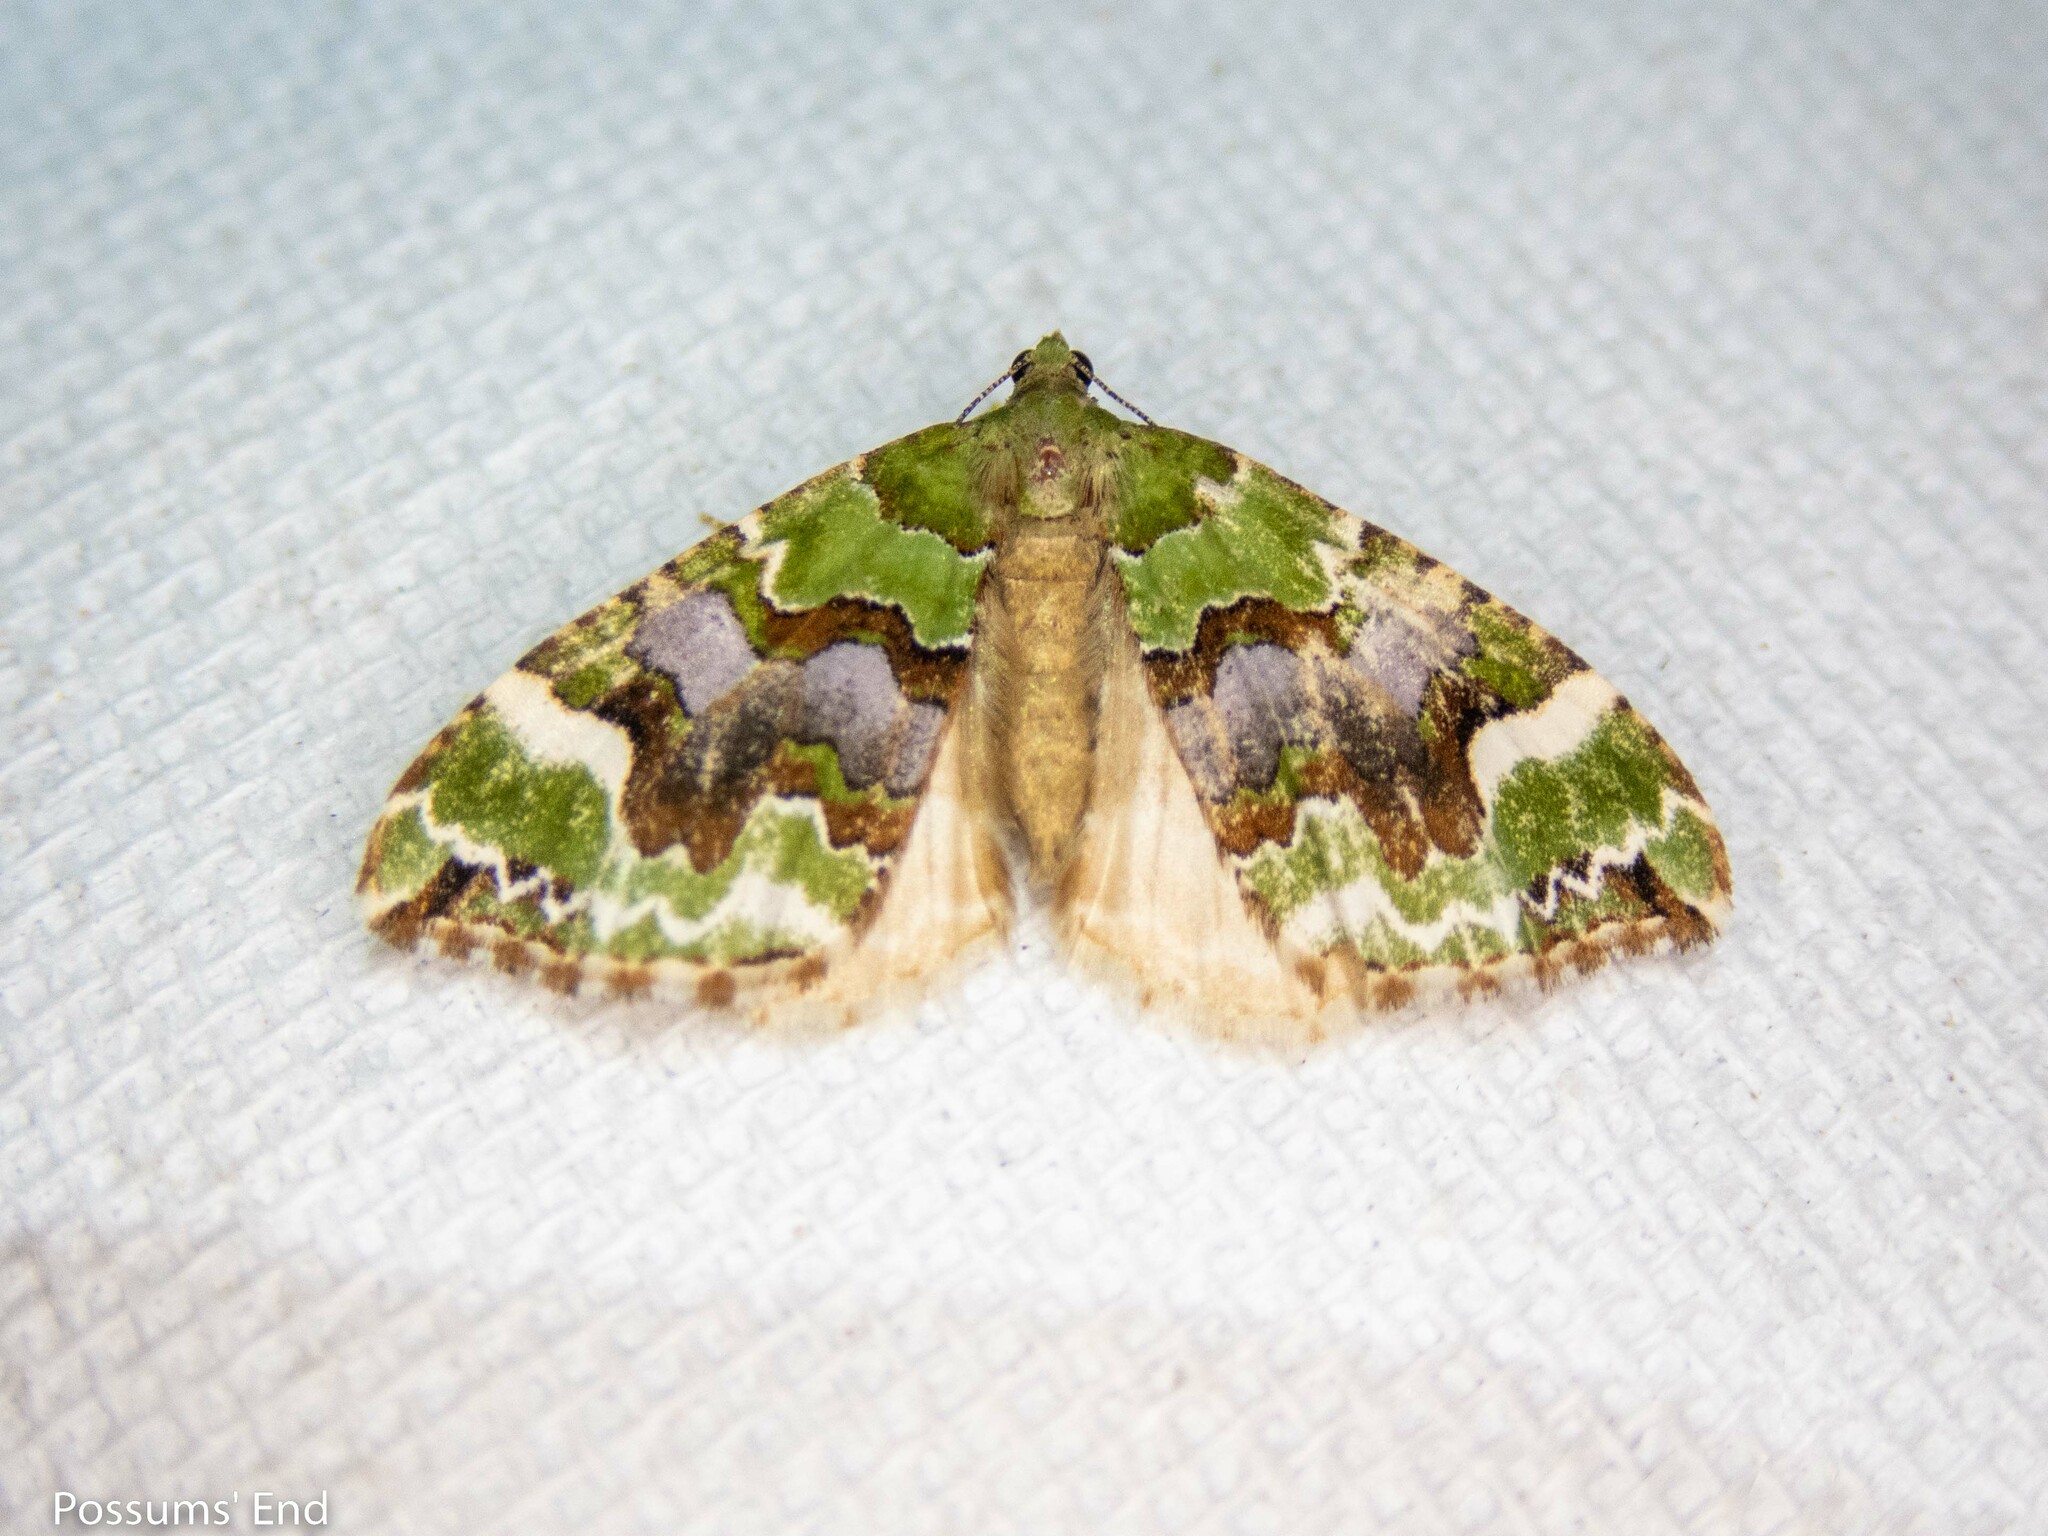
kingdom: Animalia
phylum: Arthropoda
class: Insecta
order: Lepidoptera
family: Geometridae
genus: Hydriomena
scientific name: Hydriomena purpurifera
